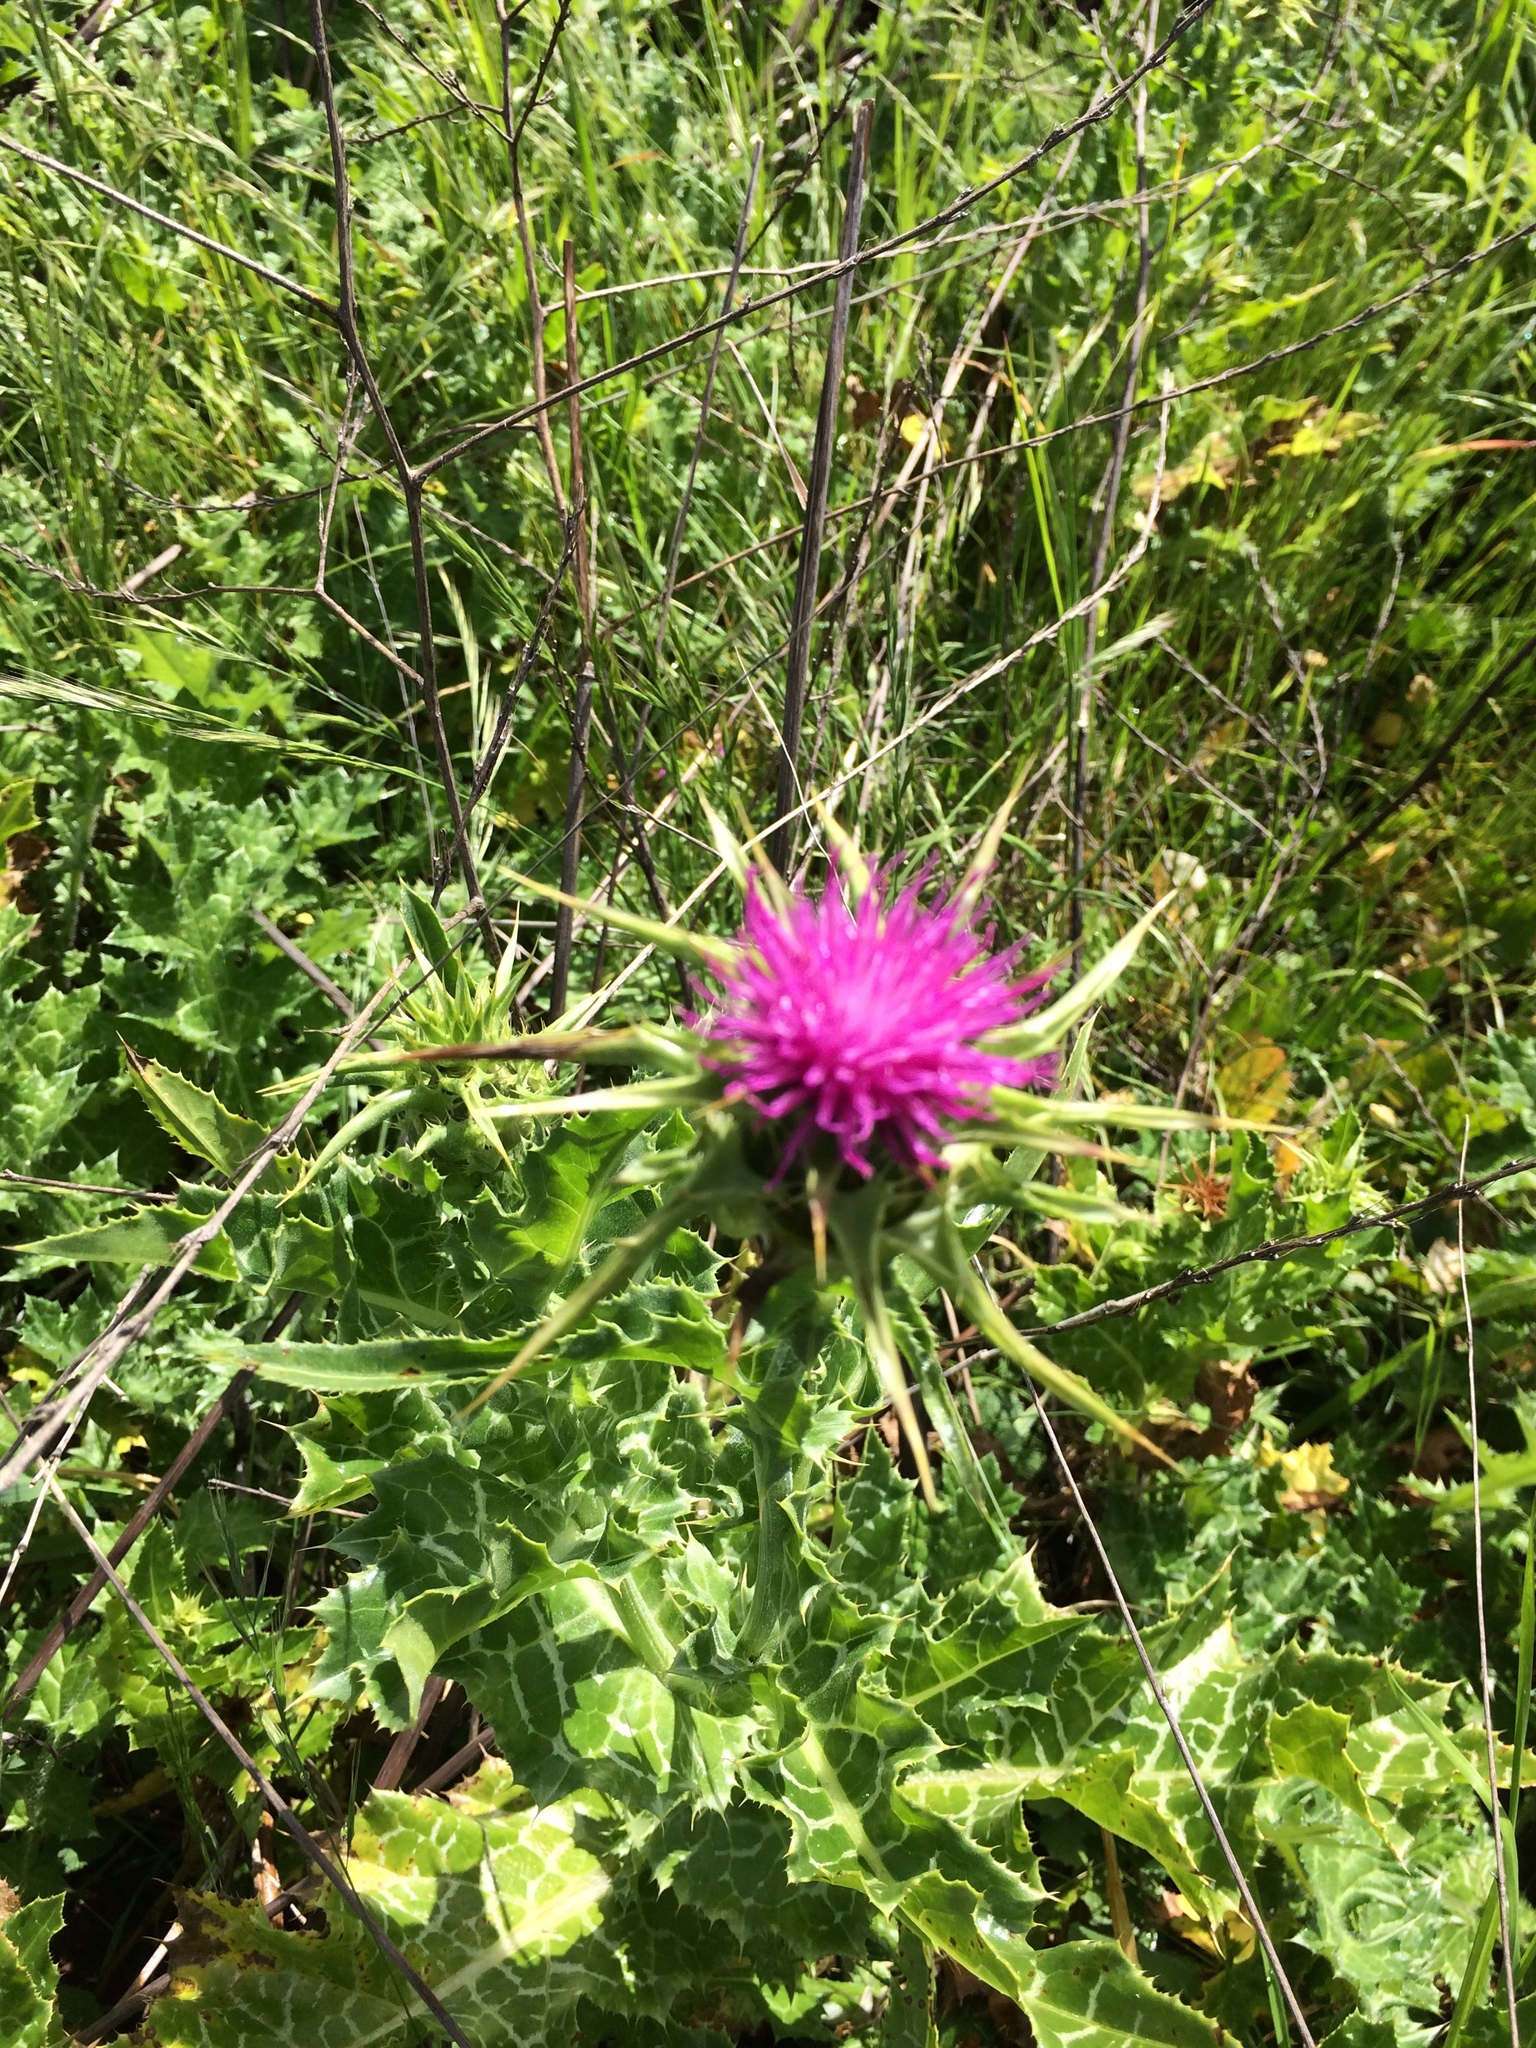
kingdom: Plantae
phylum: Tracheophyta
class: Magnoliopsida
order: Asterales
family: Asteraceae
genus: Silybum
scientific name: Silybum marianum
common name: Milk thistle
